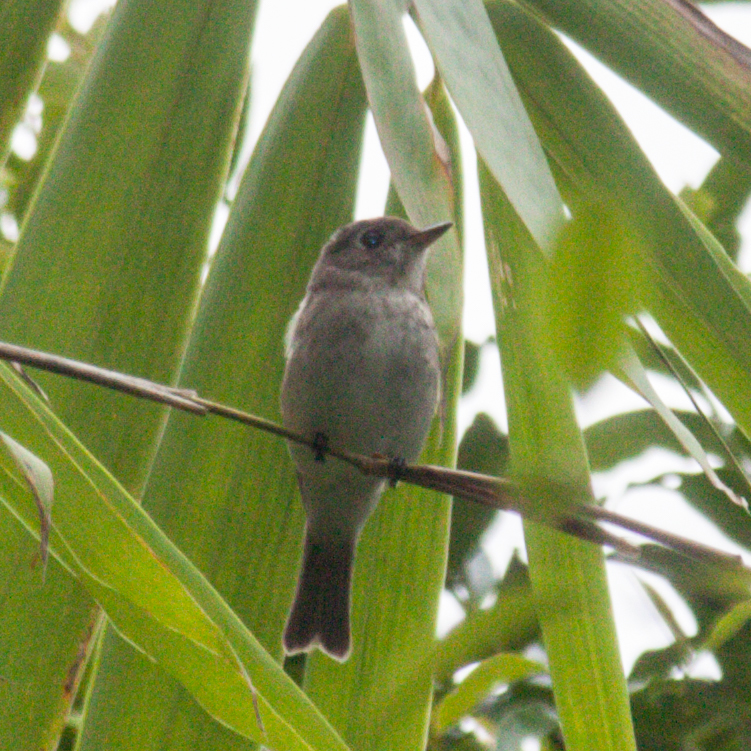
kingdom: Animalia
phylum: Chordata
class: Aves
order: Passeriformes
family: Muscicapidae
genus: Muscicapa
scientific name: Muscicapa latirostris
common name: Asian brown flycatcher
